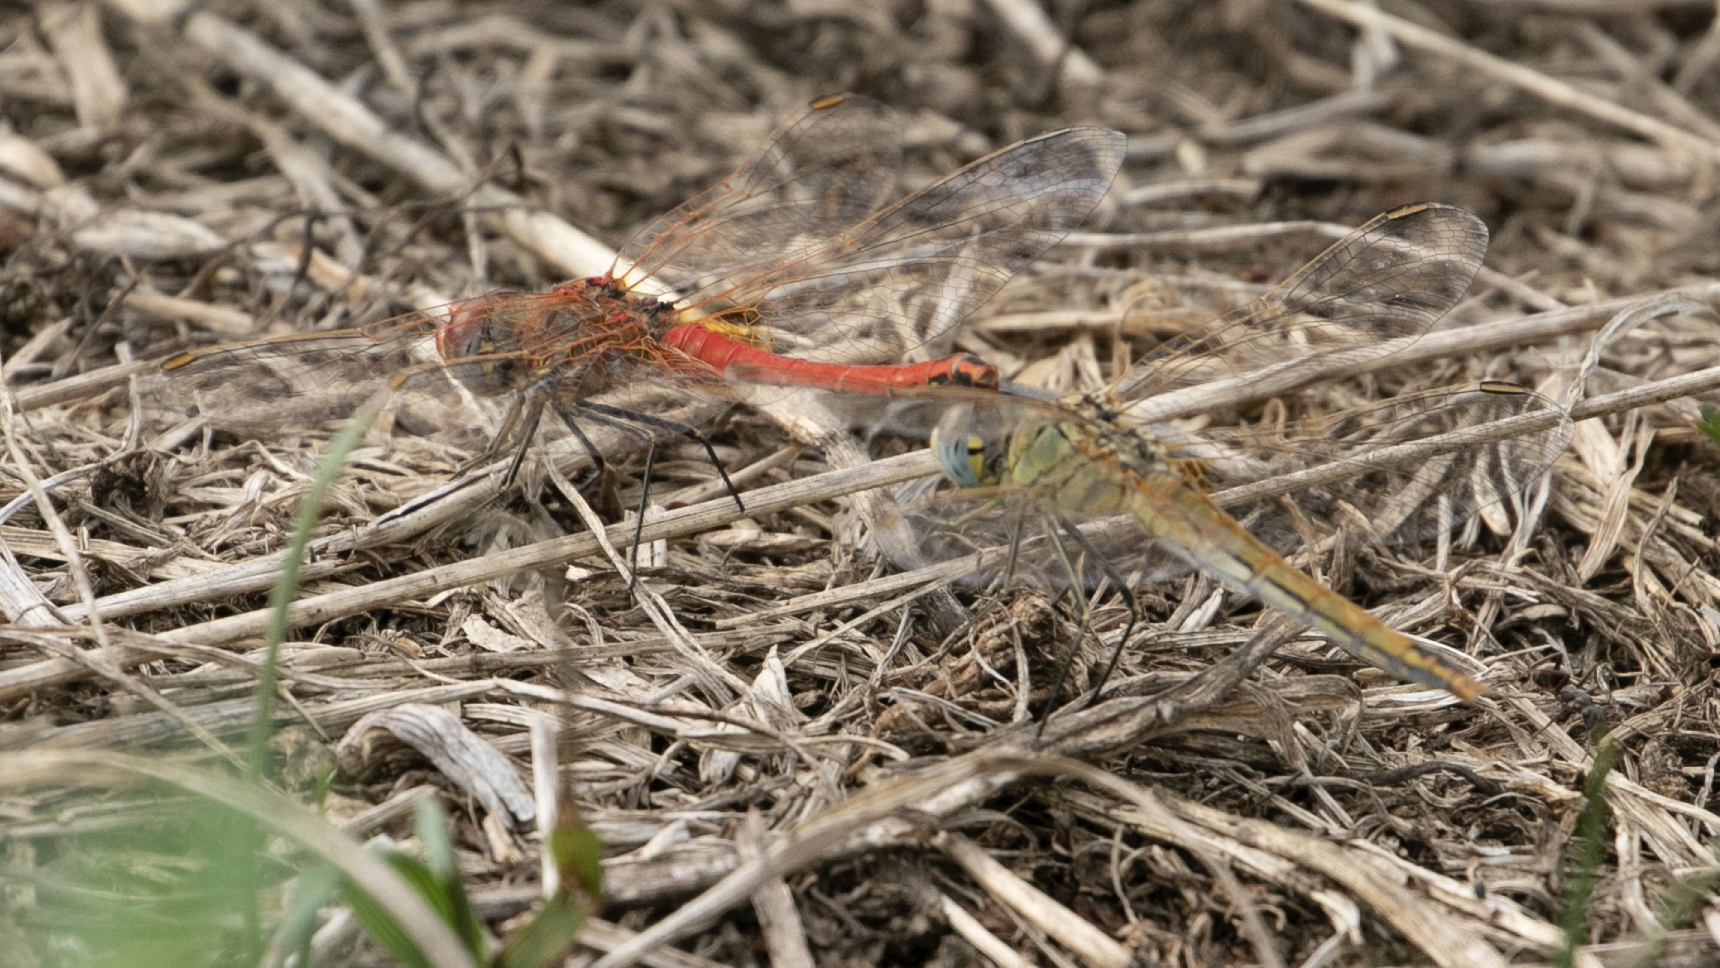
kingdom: Animalia
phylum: Arthropoda
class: Insecta
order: Odonata
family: Libellulidae
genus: Sympetrum
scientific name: Sympetrum fonscolombii
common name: Red-veined darter
